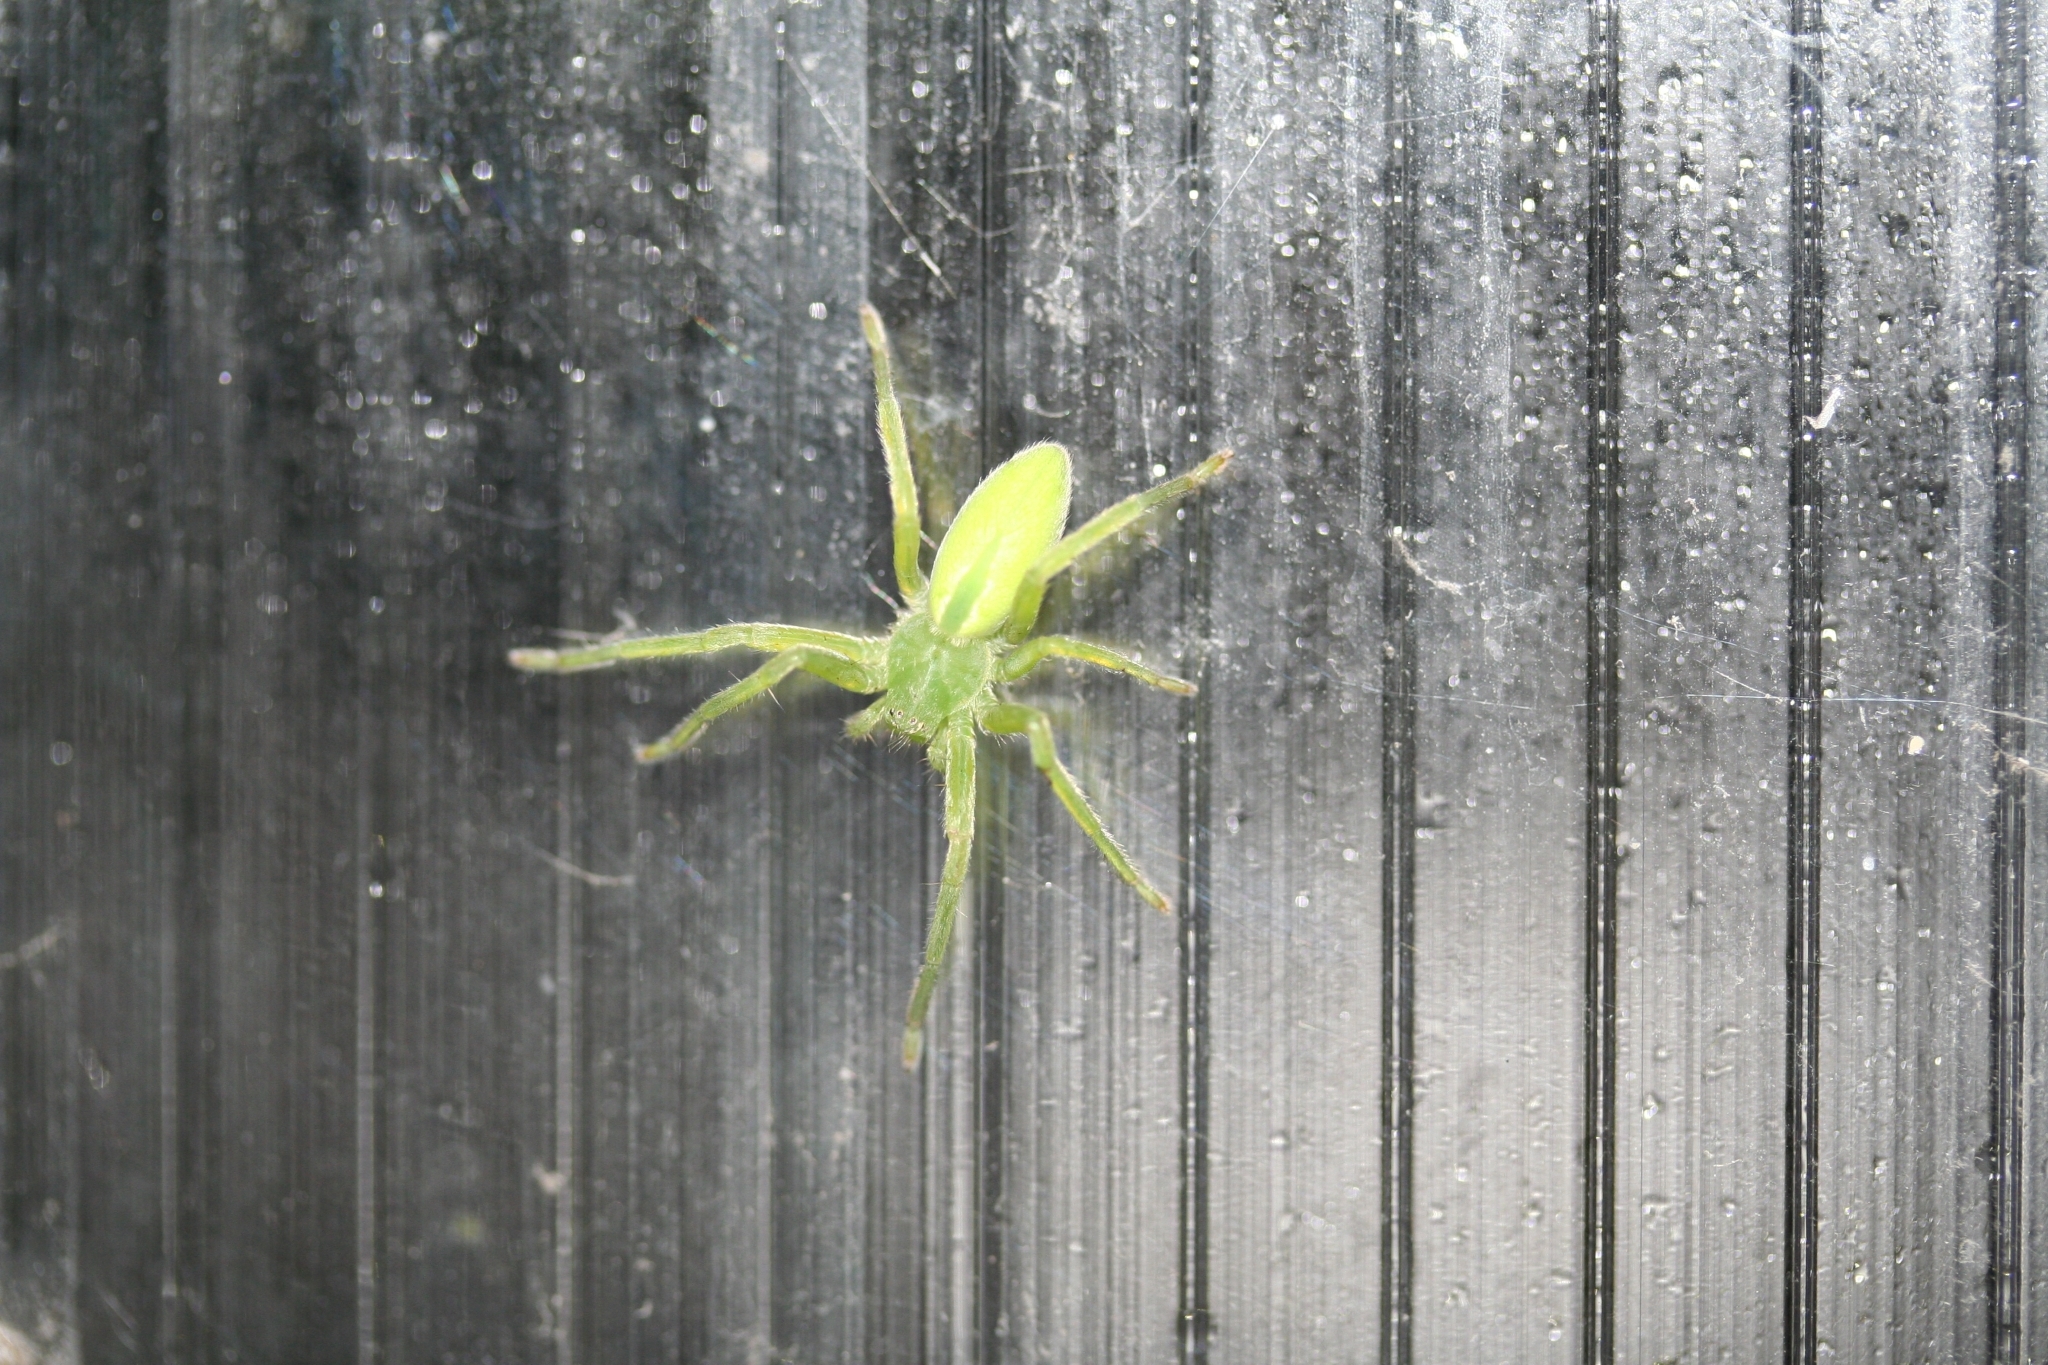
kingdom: Animalia
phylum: Arthropoda
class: Arachnida
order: Araneae
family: Sparassidae
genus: Micrommata
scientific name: Micrommata virescens
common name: Green spider
